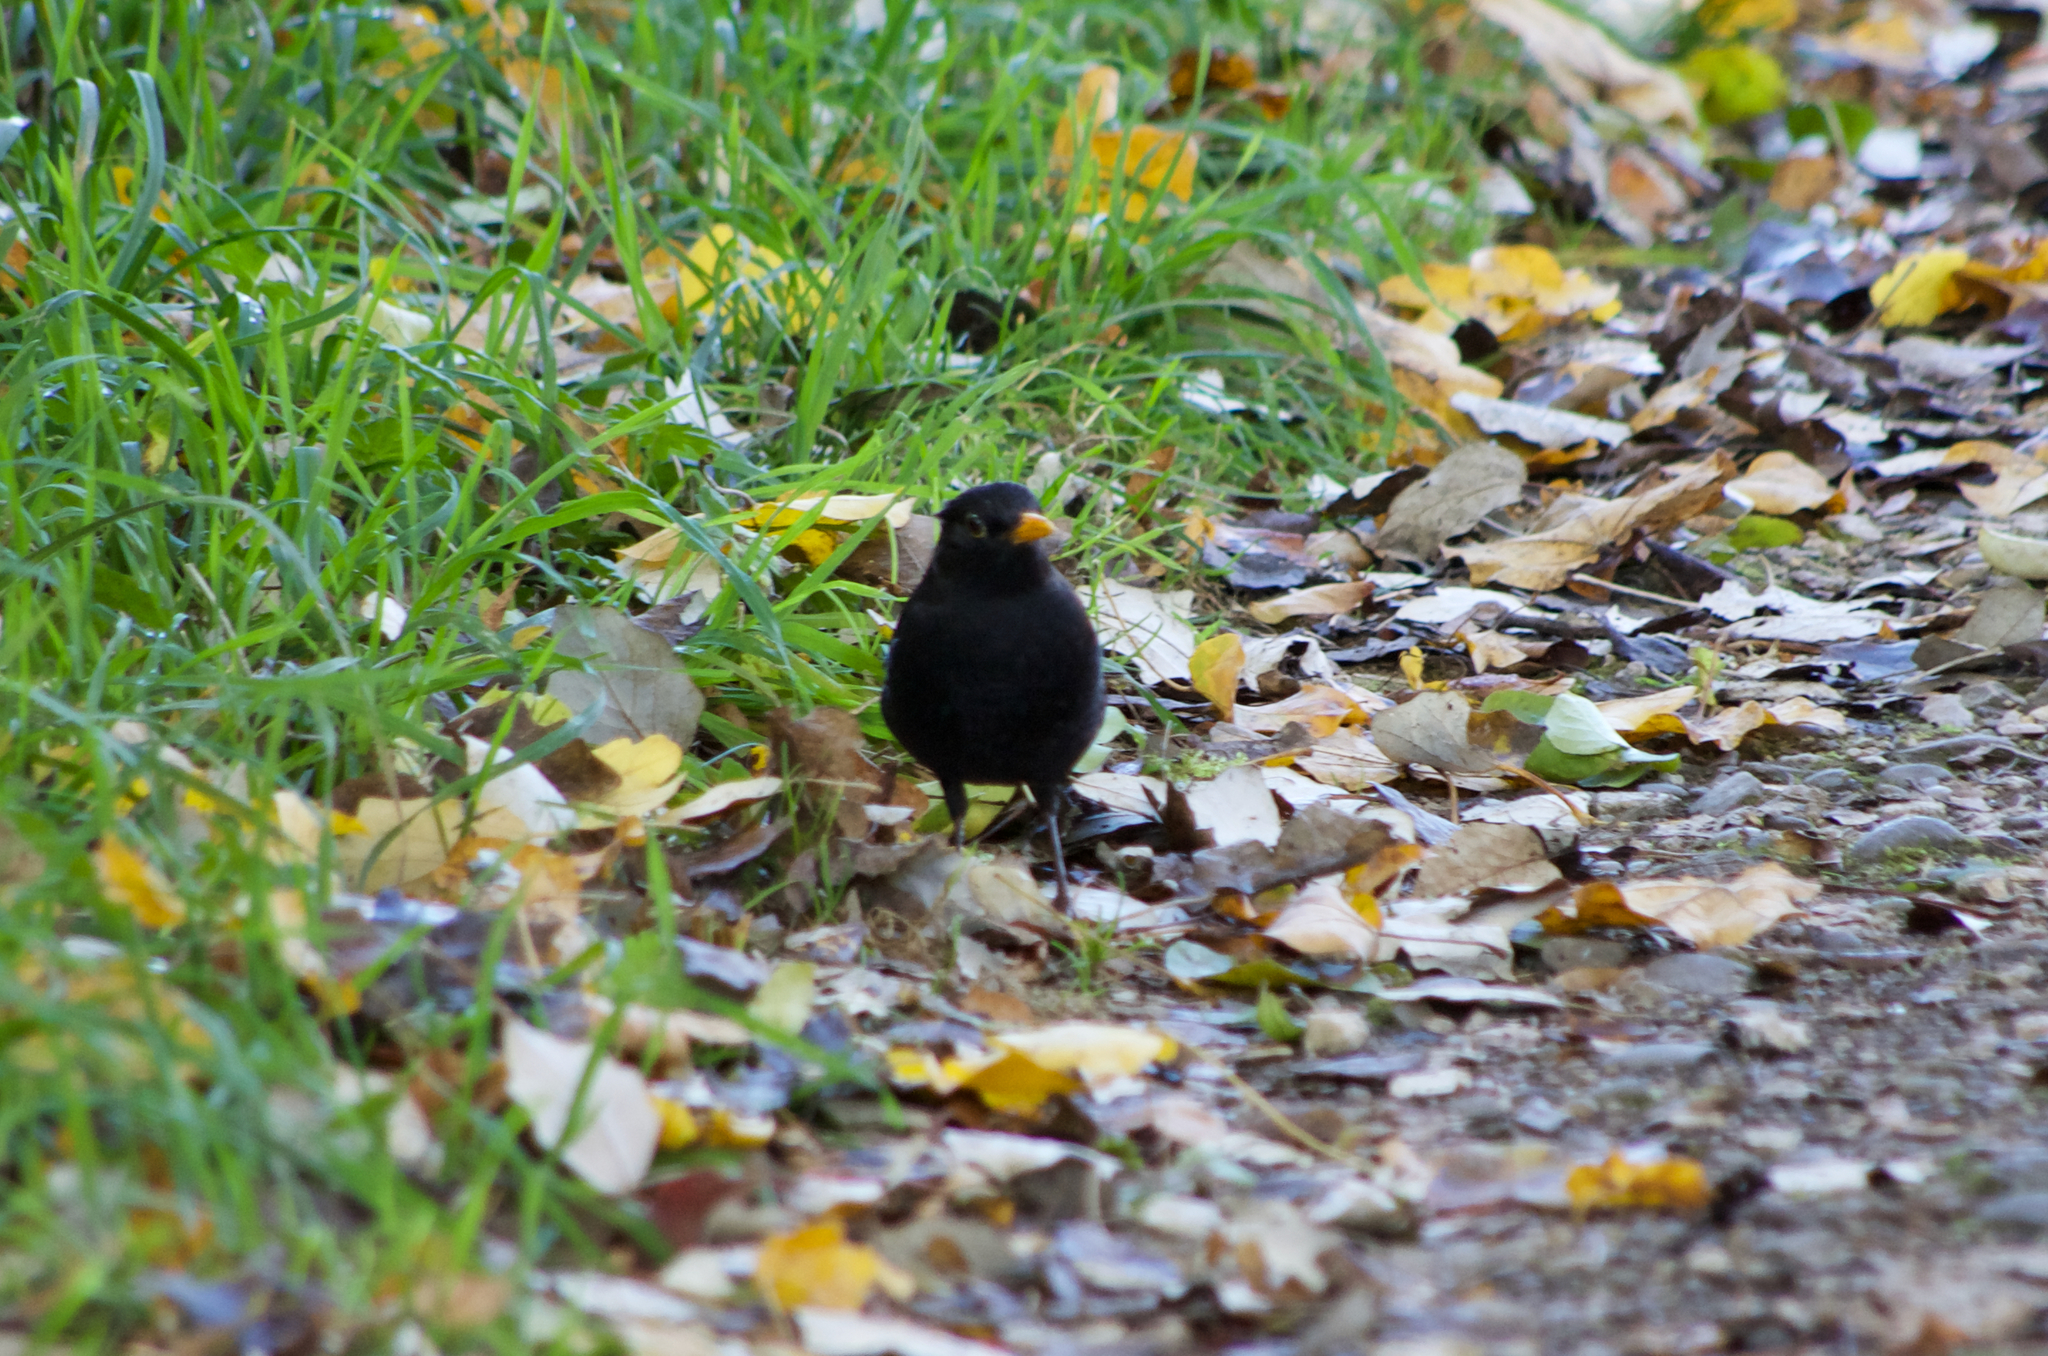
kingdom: Animalia
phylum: Chordata
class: Aves
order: Passeriformes
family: Turdidae
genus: Turdus
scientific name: Turdus merula
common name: Common blackbird
